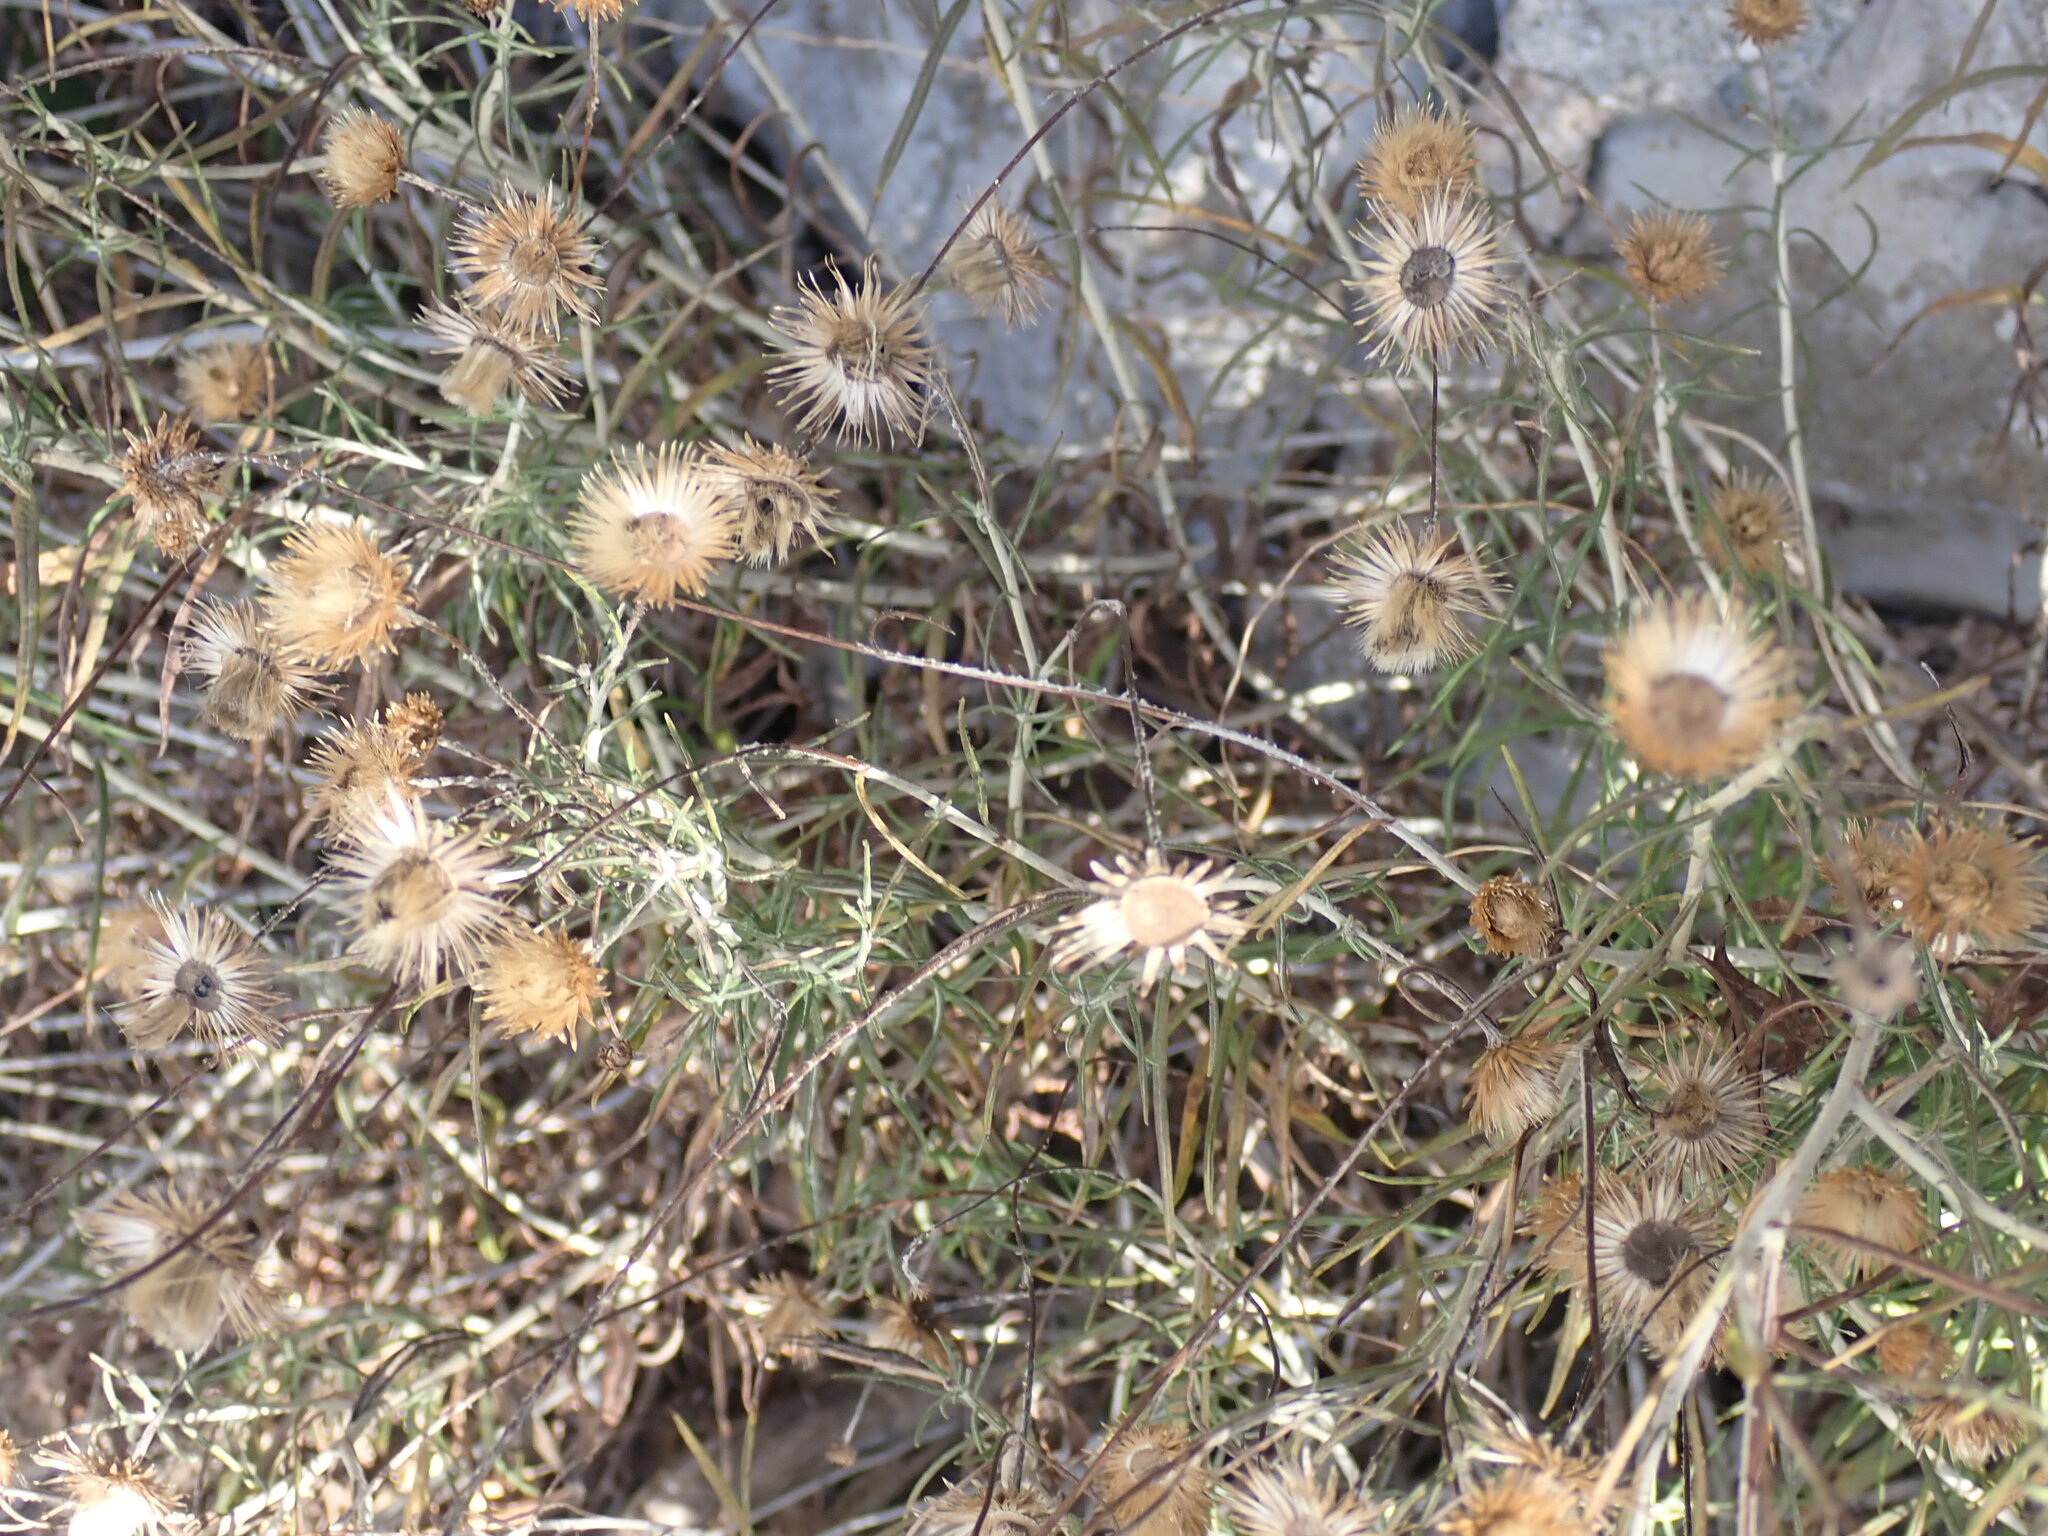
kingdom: Plantae
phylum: Tracheophyta
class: Magnoliopsida
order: Asterales
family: Asteraceae
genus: Phagnalon
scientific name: Phagnalon saxatile
